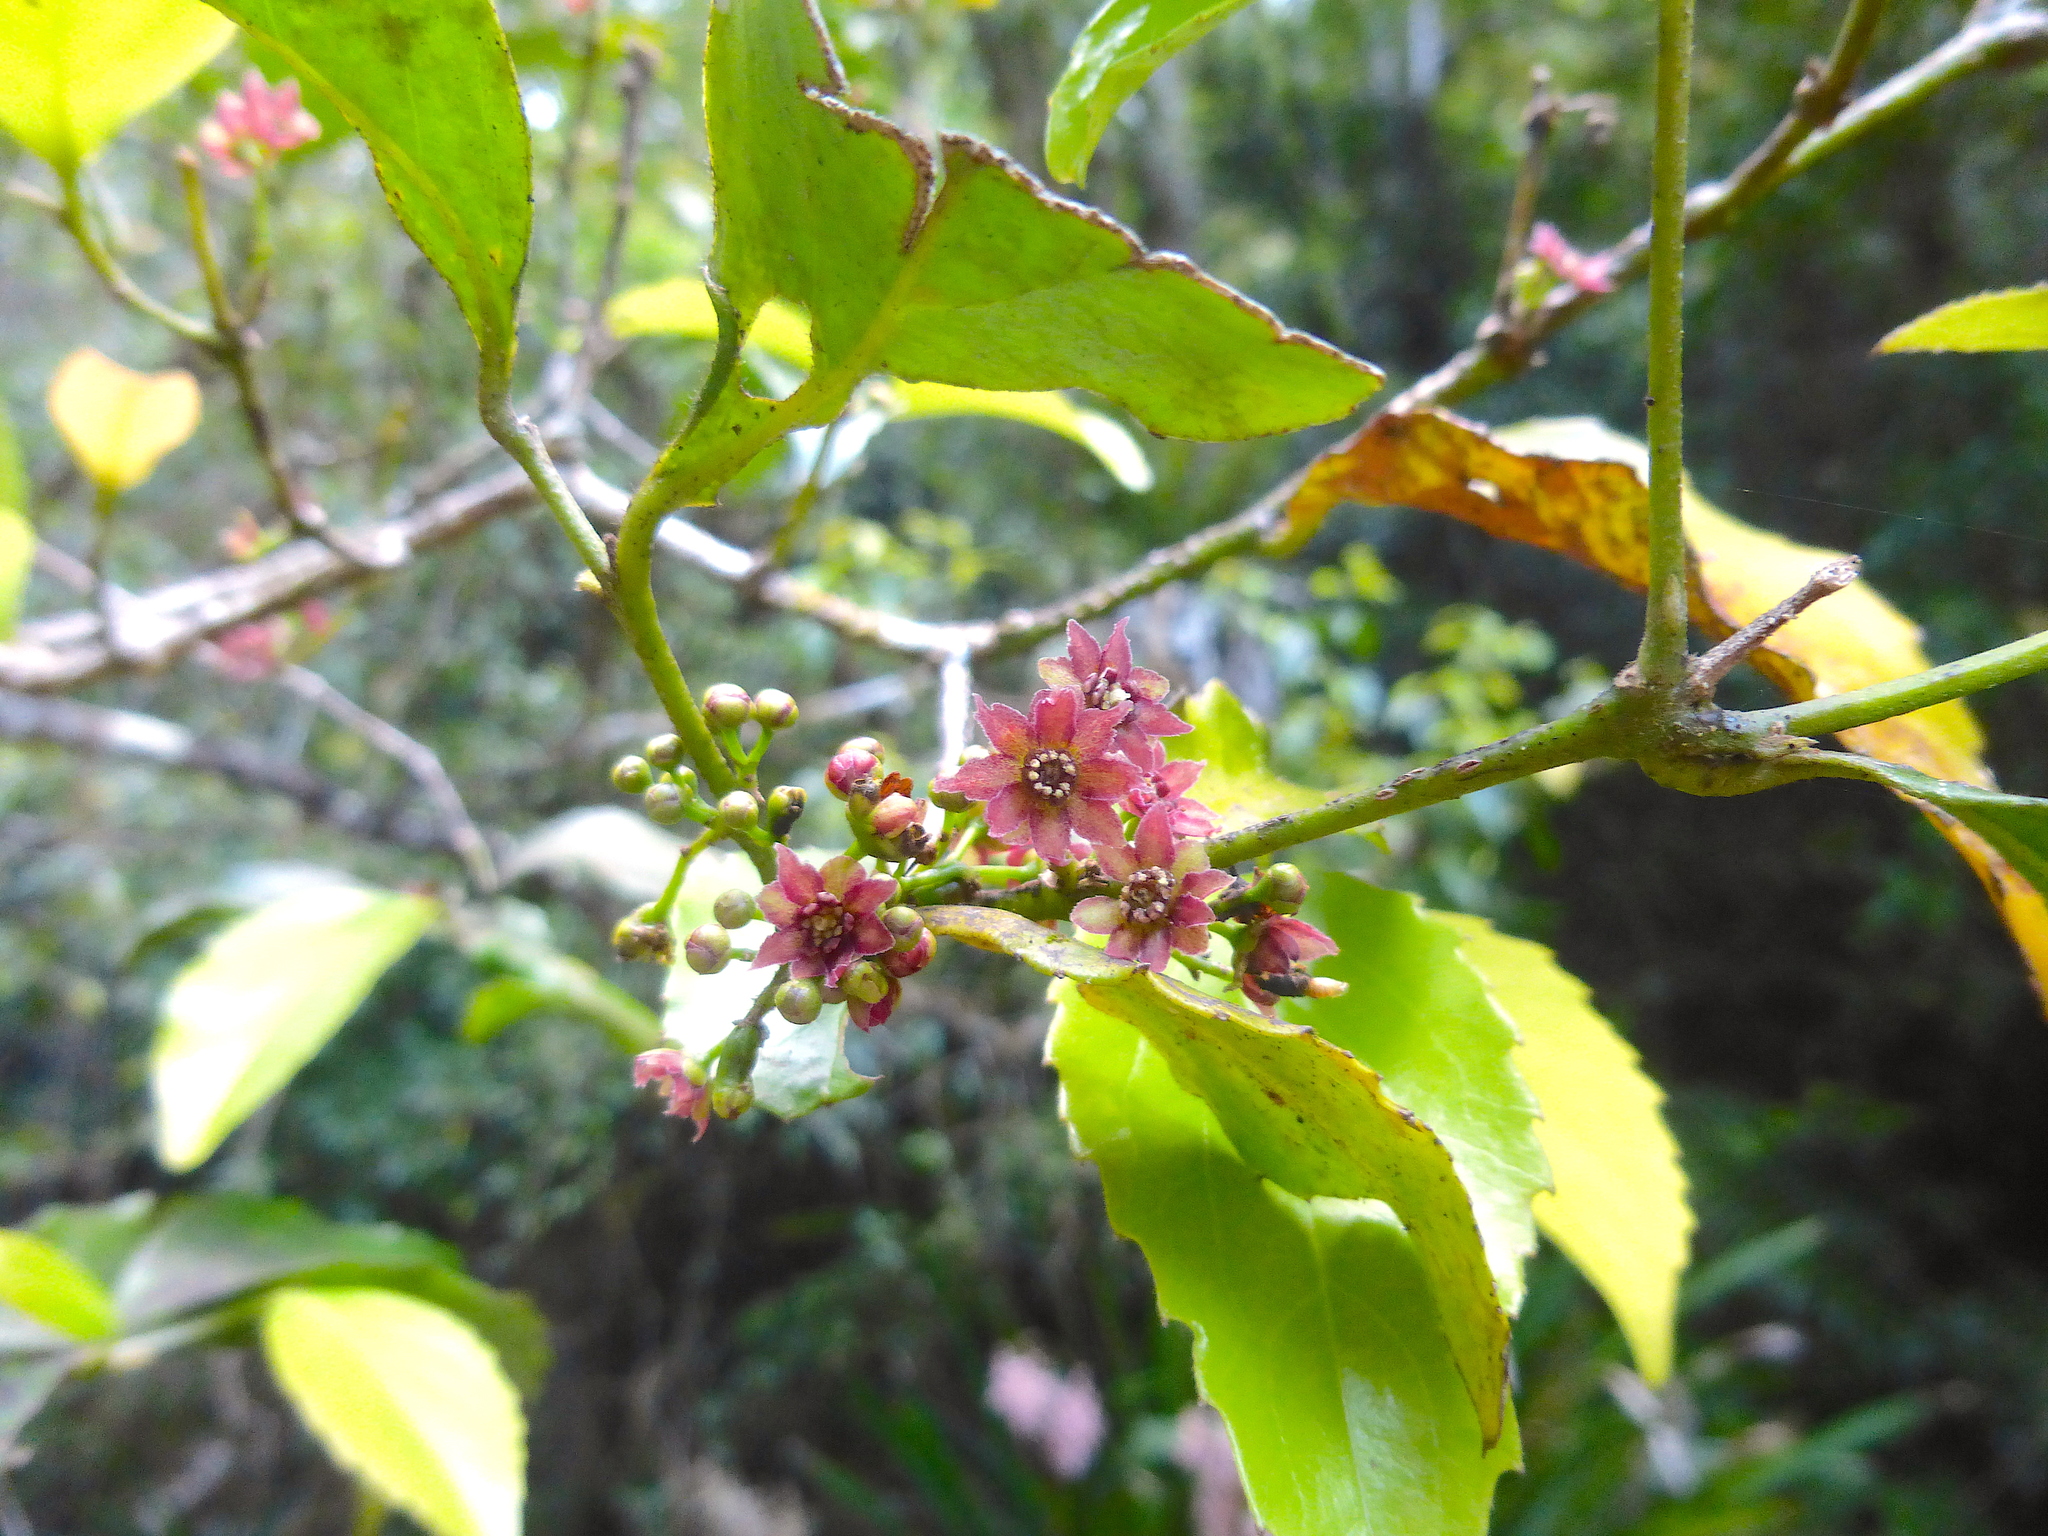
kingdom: Plantae
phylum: Tracheophyta
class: Magnoliopsida
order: Laurales
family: Atherospermataceae
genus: Daphnandra
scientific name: Daphnandra tenuipes
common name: Red-flowered socketwood
